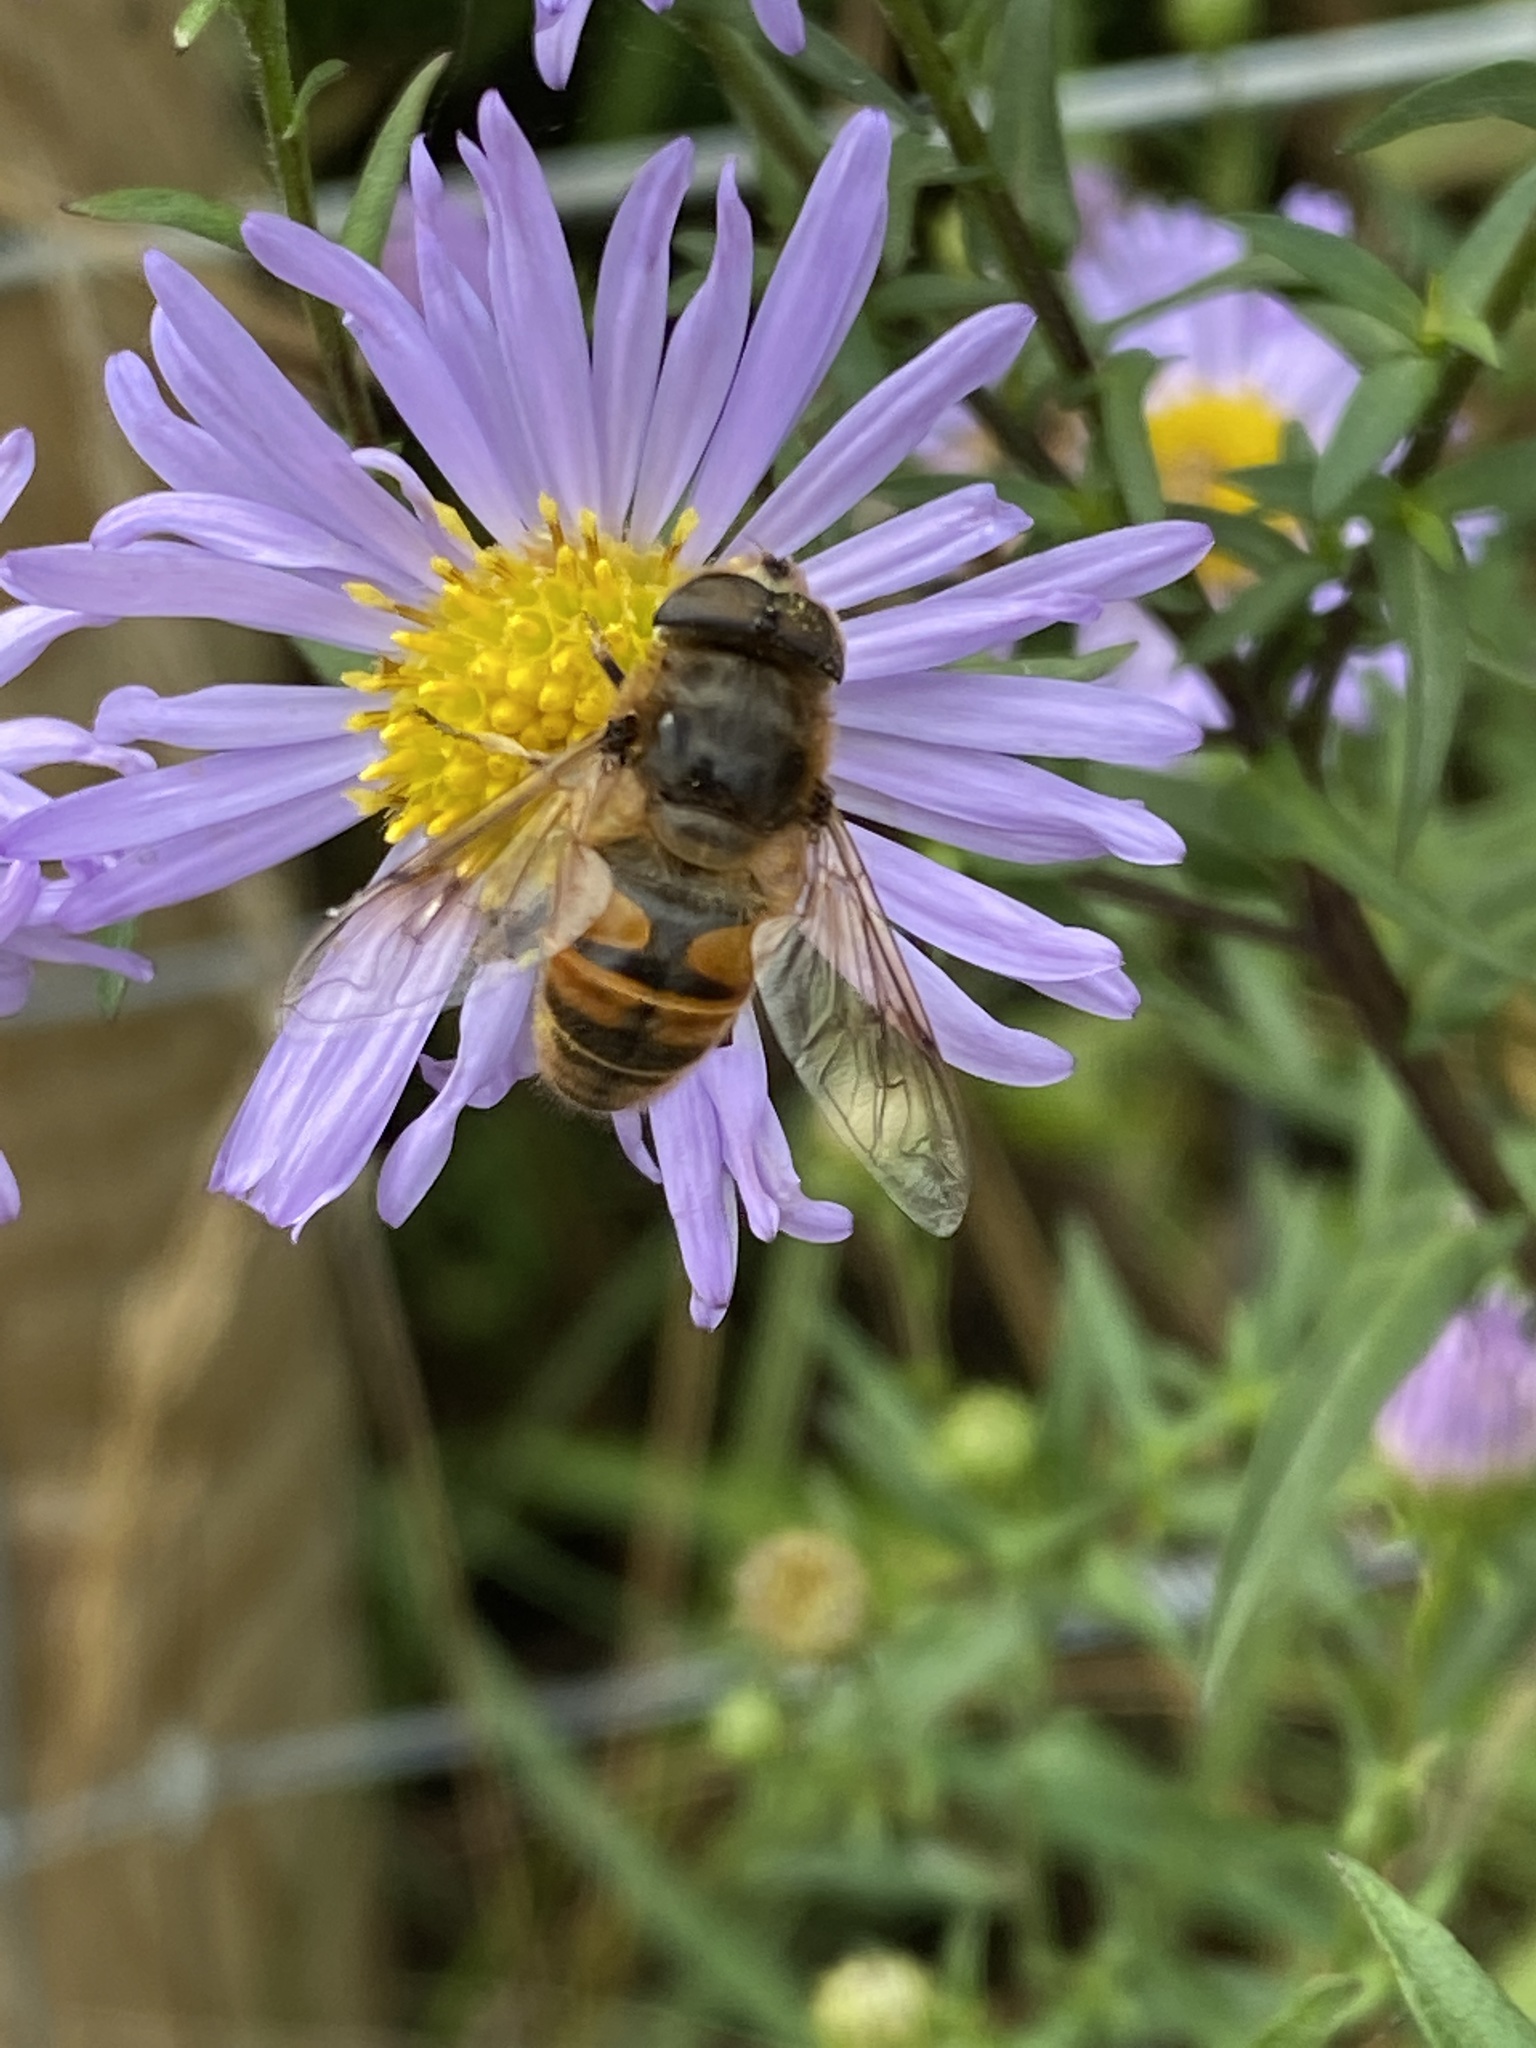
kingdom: Animalia
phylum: Arthropoda
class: Insecta
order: Diptera
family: Syrphidae
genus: Eristalis
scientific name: Eristalis tenax
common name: Drone fly
